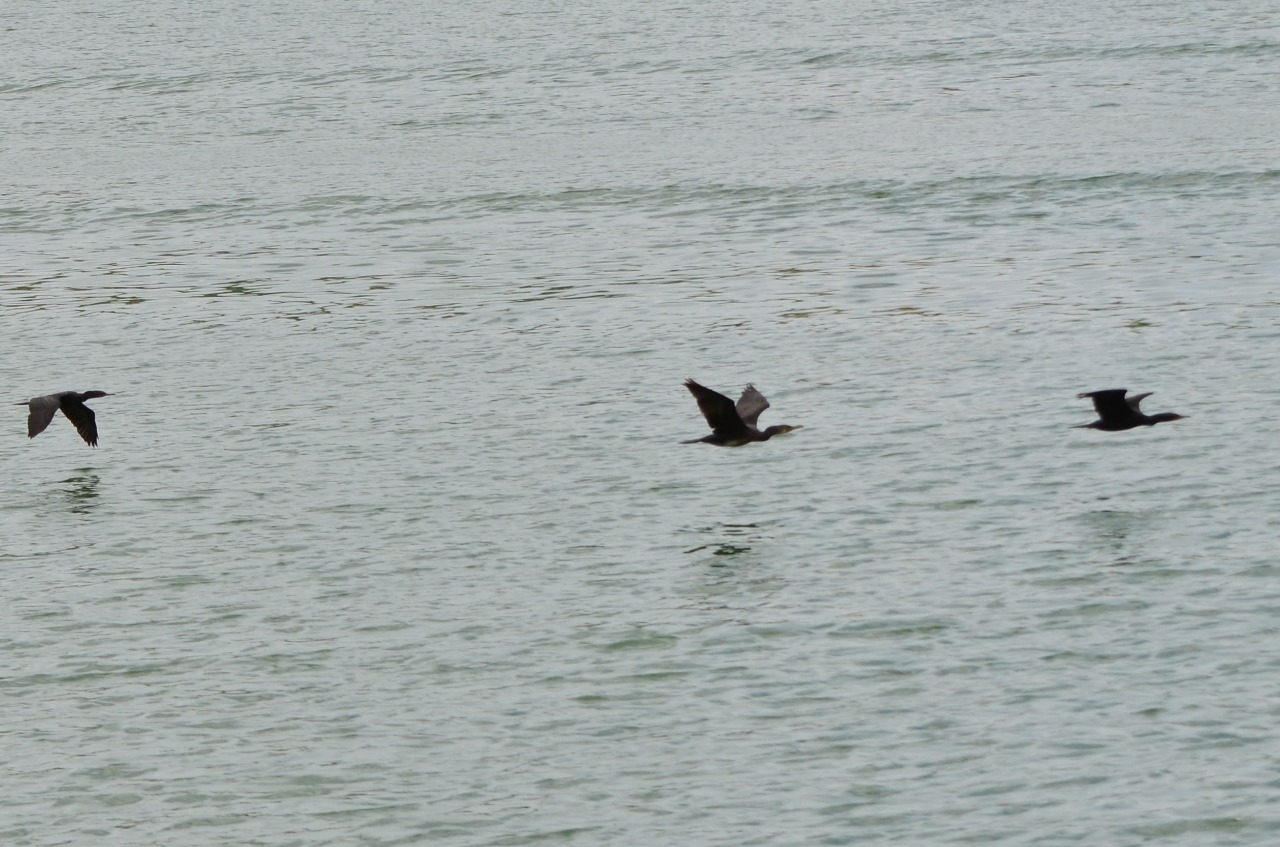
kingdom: Animalia
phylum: Chordata
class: Aves
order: Suliformes
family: Phalacrocoracidae
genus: Phalacrocorax
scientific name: Phalacrocorax fuscicollis
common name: Indian cormorant
